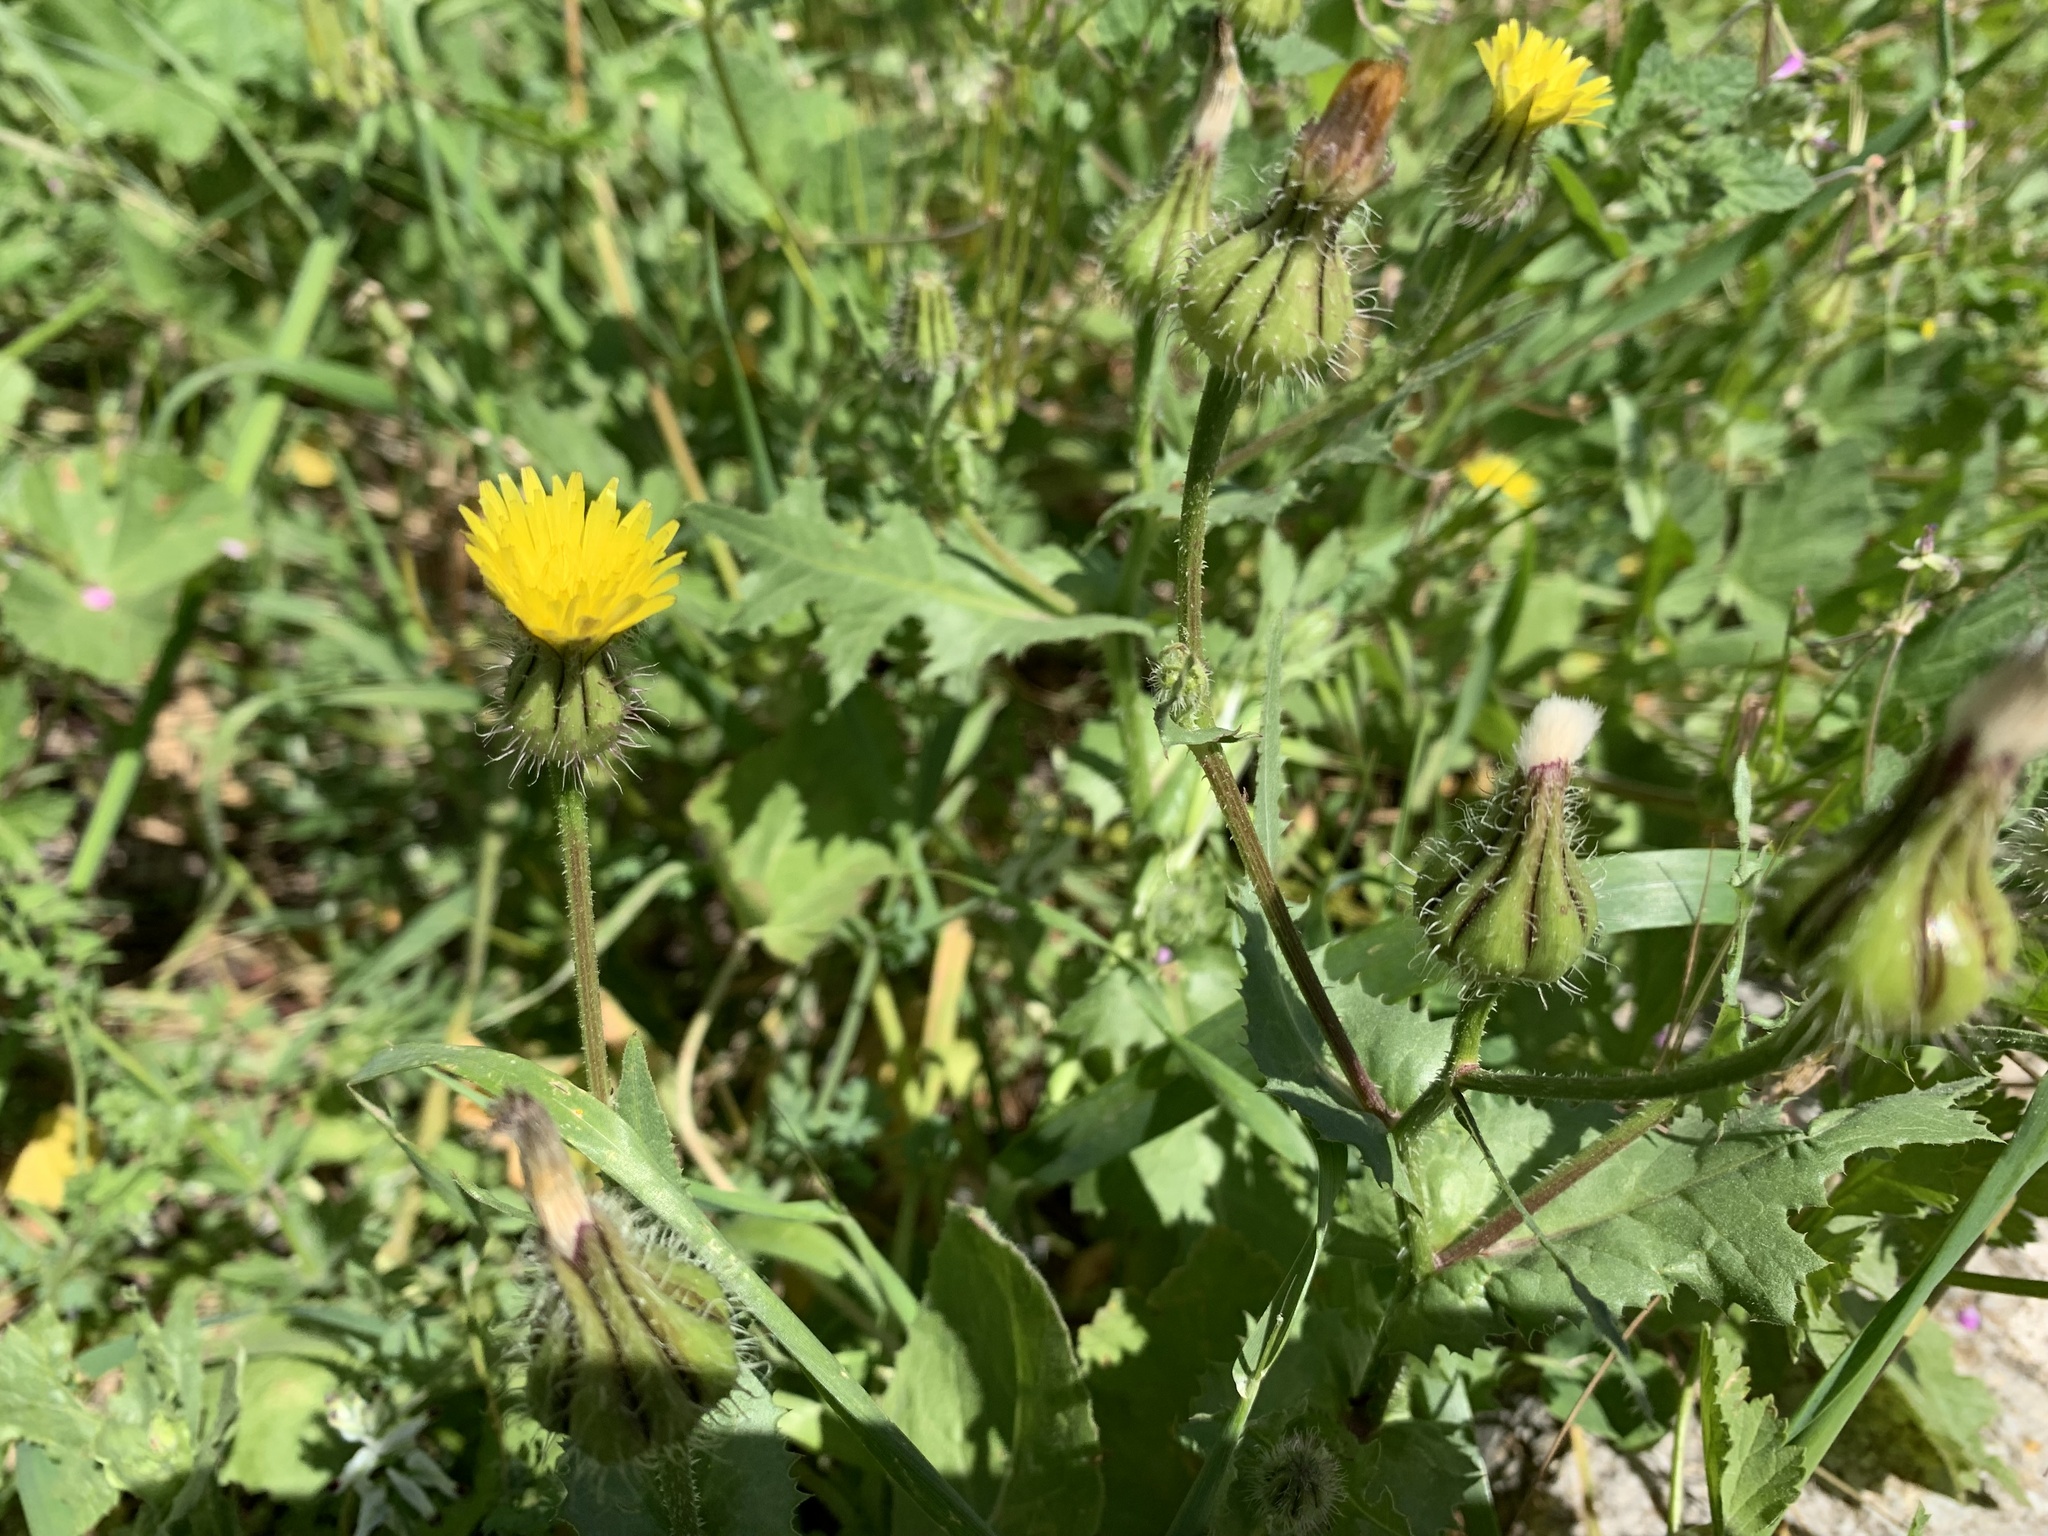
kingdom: Plantae
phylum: Tracheophyta
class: Magnoliopsida
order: Asterales
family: Asteraceae
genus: Urospermum
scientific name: Urospermum picroides
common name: False hawkbit
